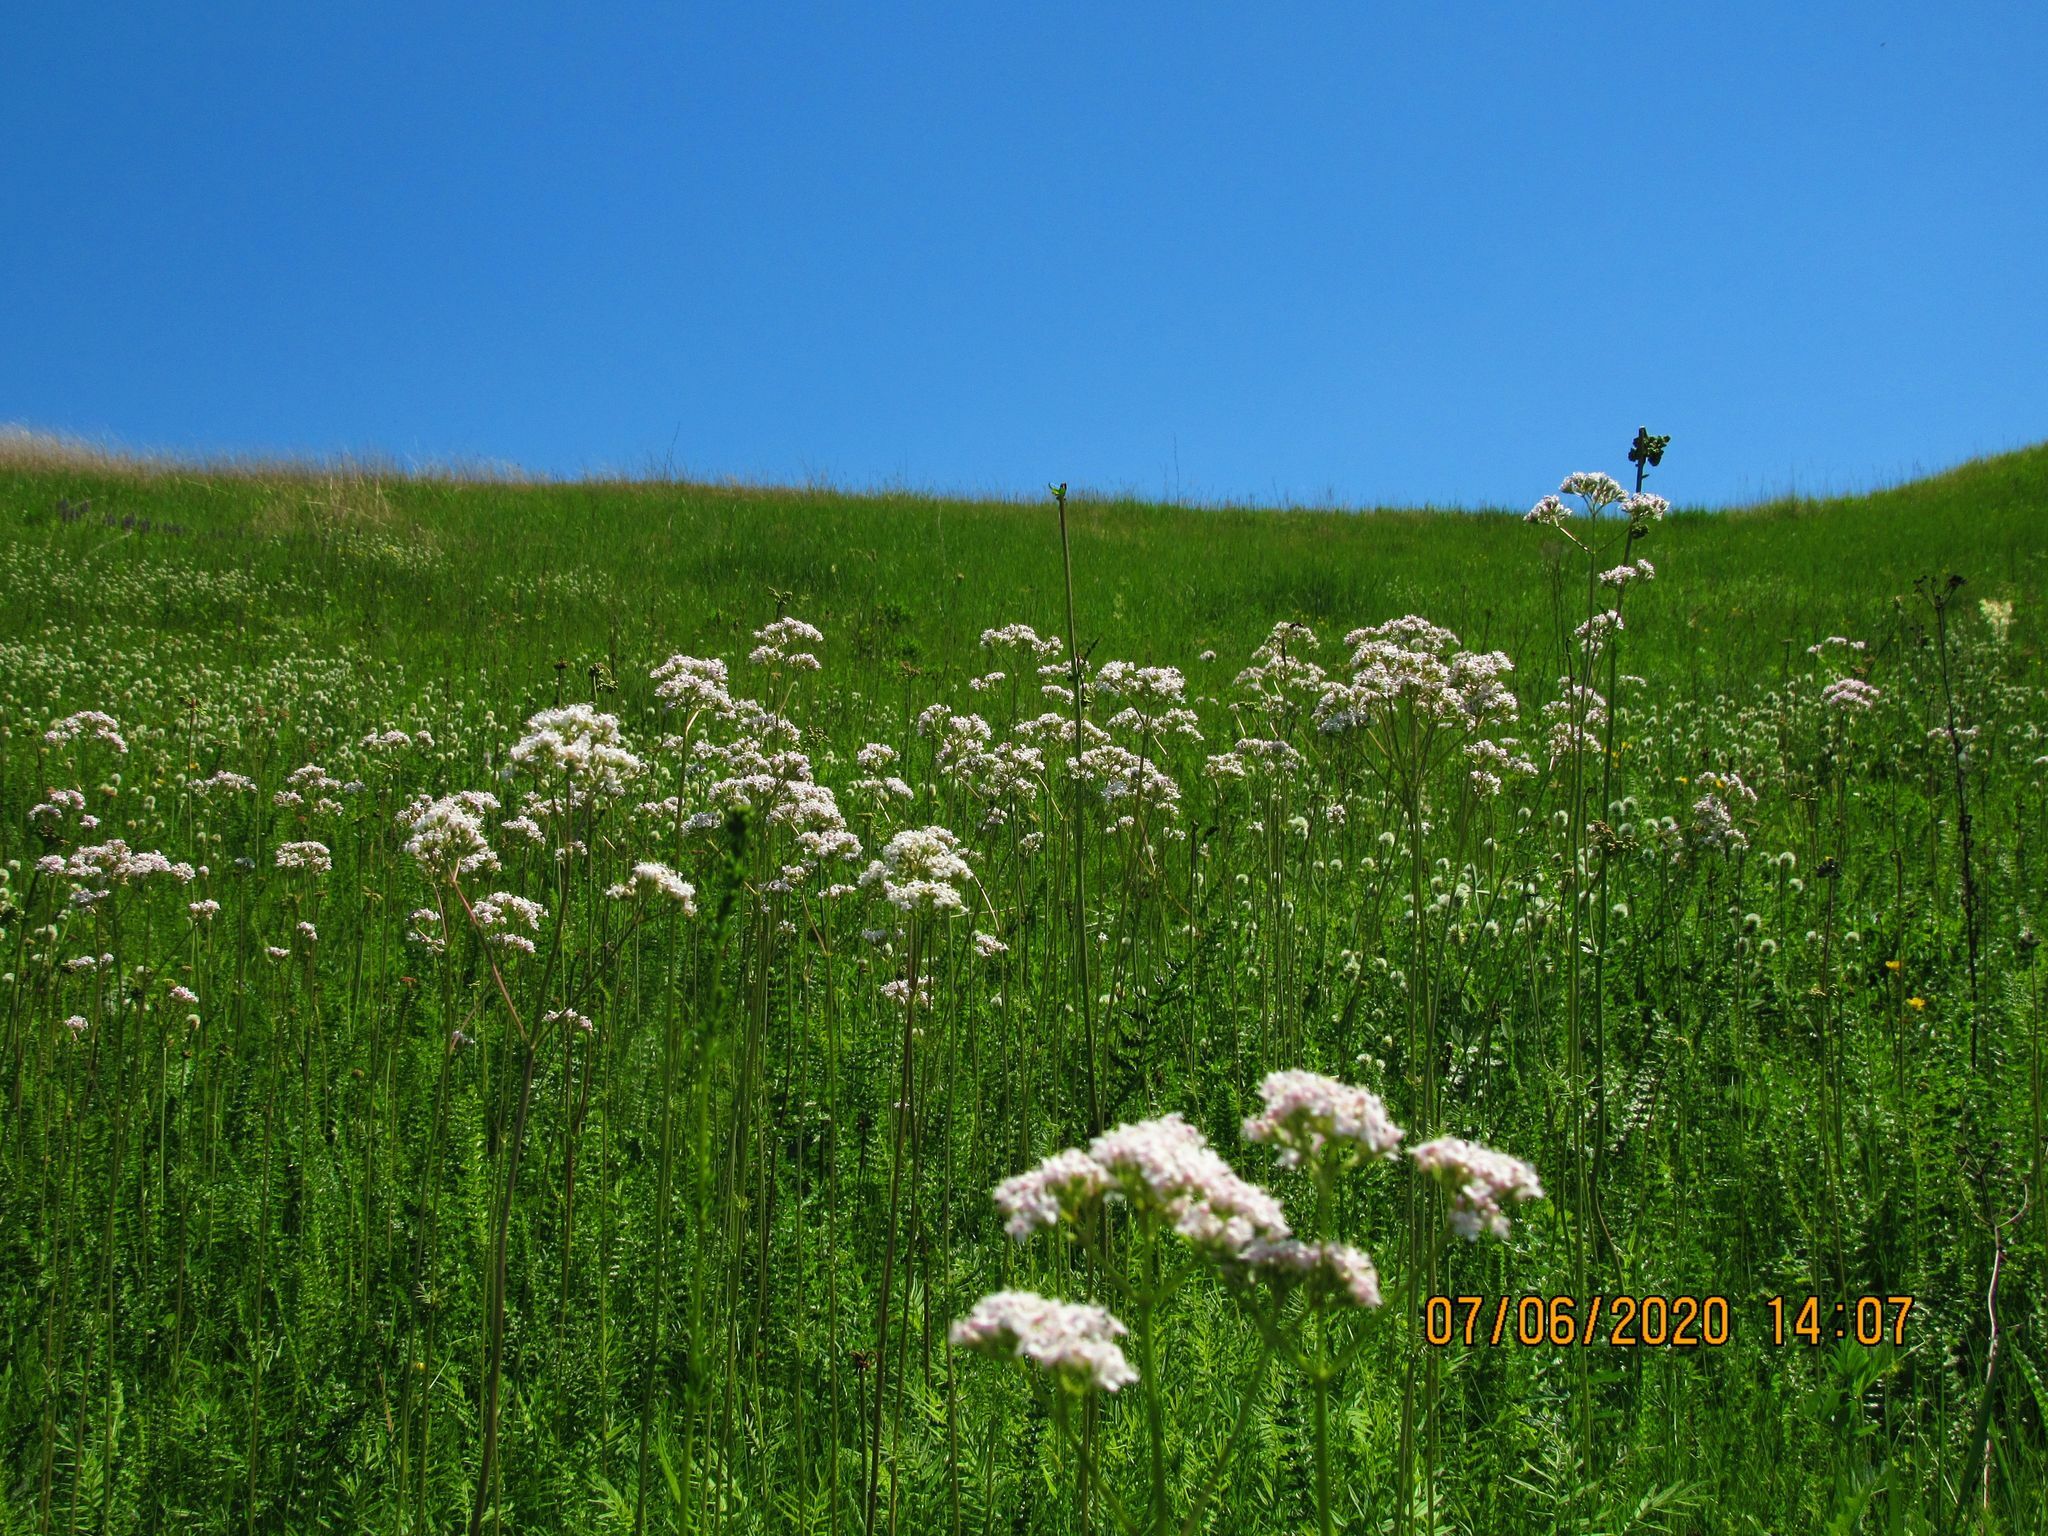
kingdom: Plantae
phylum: Tracheophyta
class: Magnoliopsida
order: Dipsacales
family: Caprifoliaceae
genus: Valeriana
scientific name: Valeriana officinalis
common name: Common valerian
